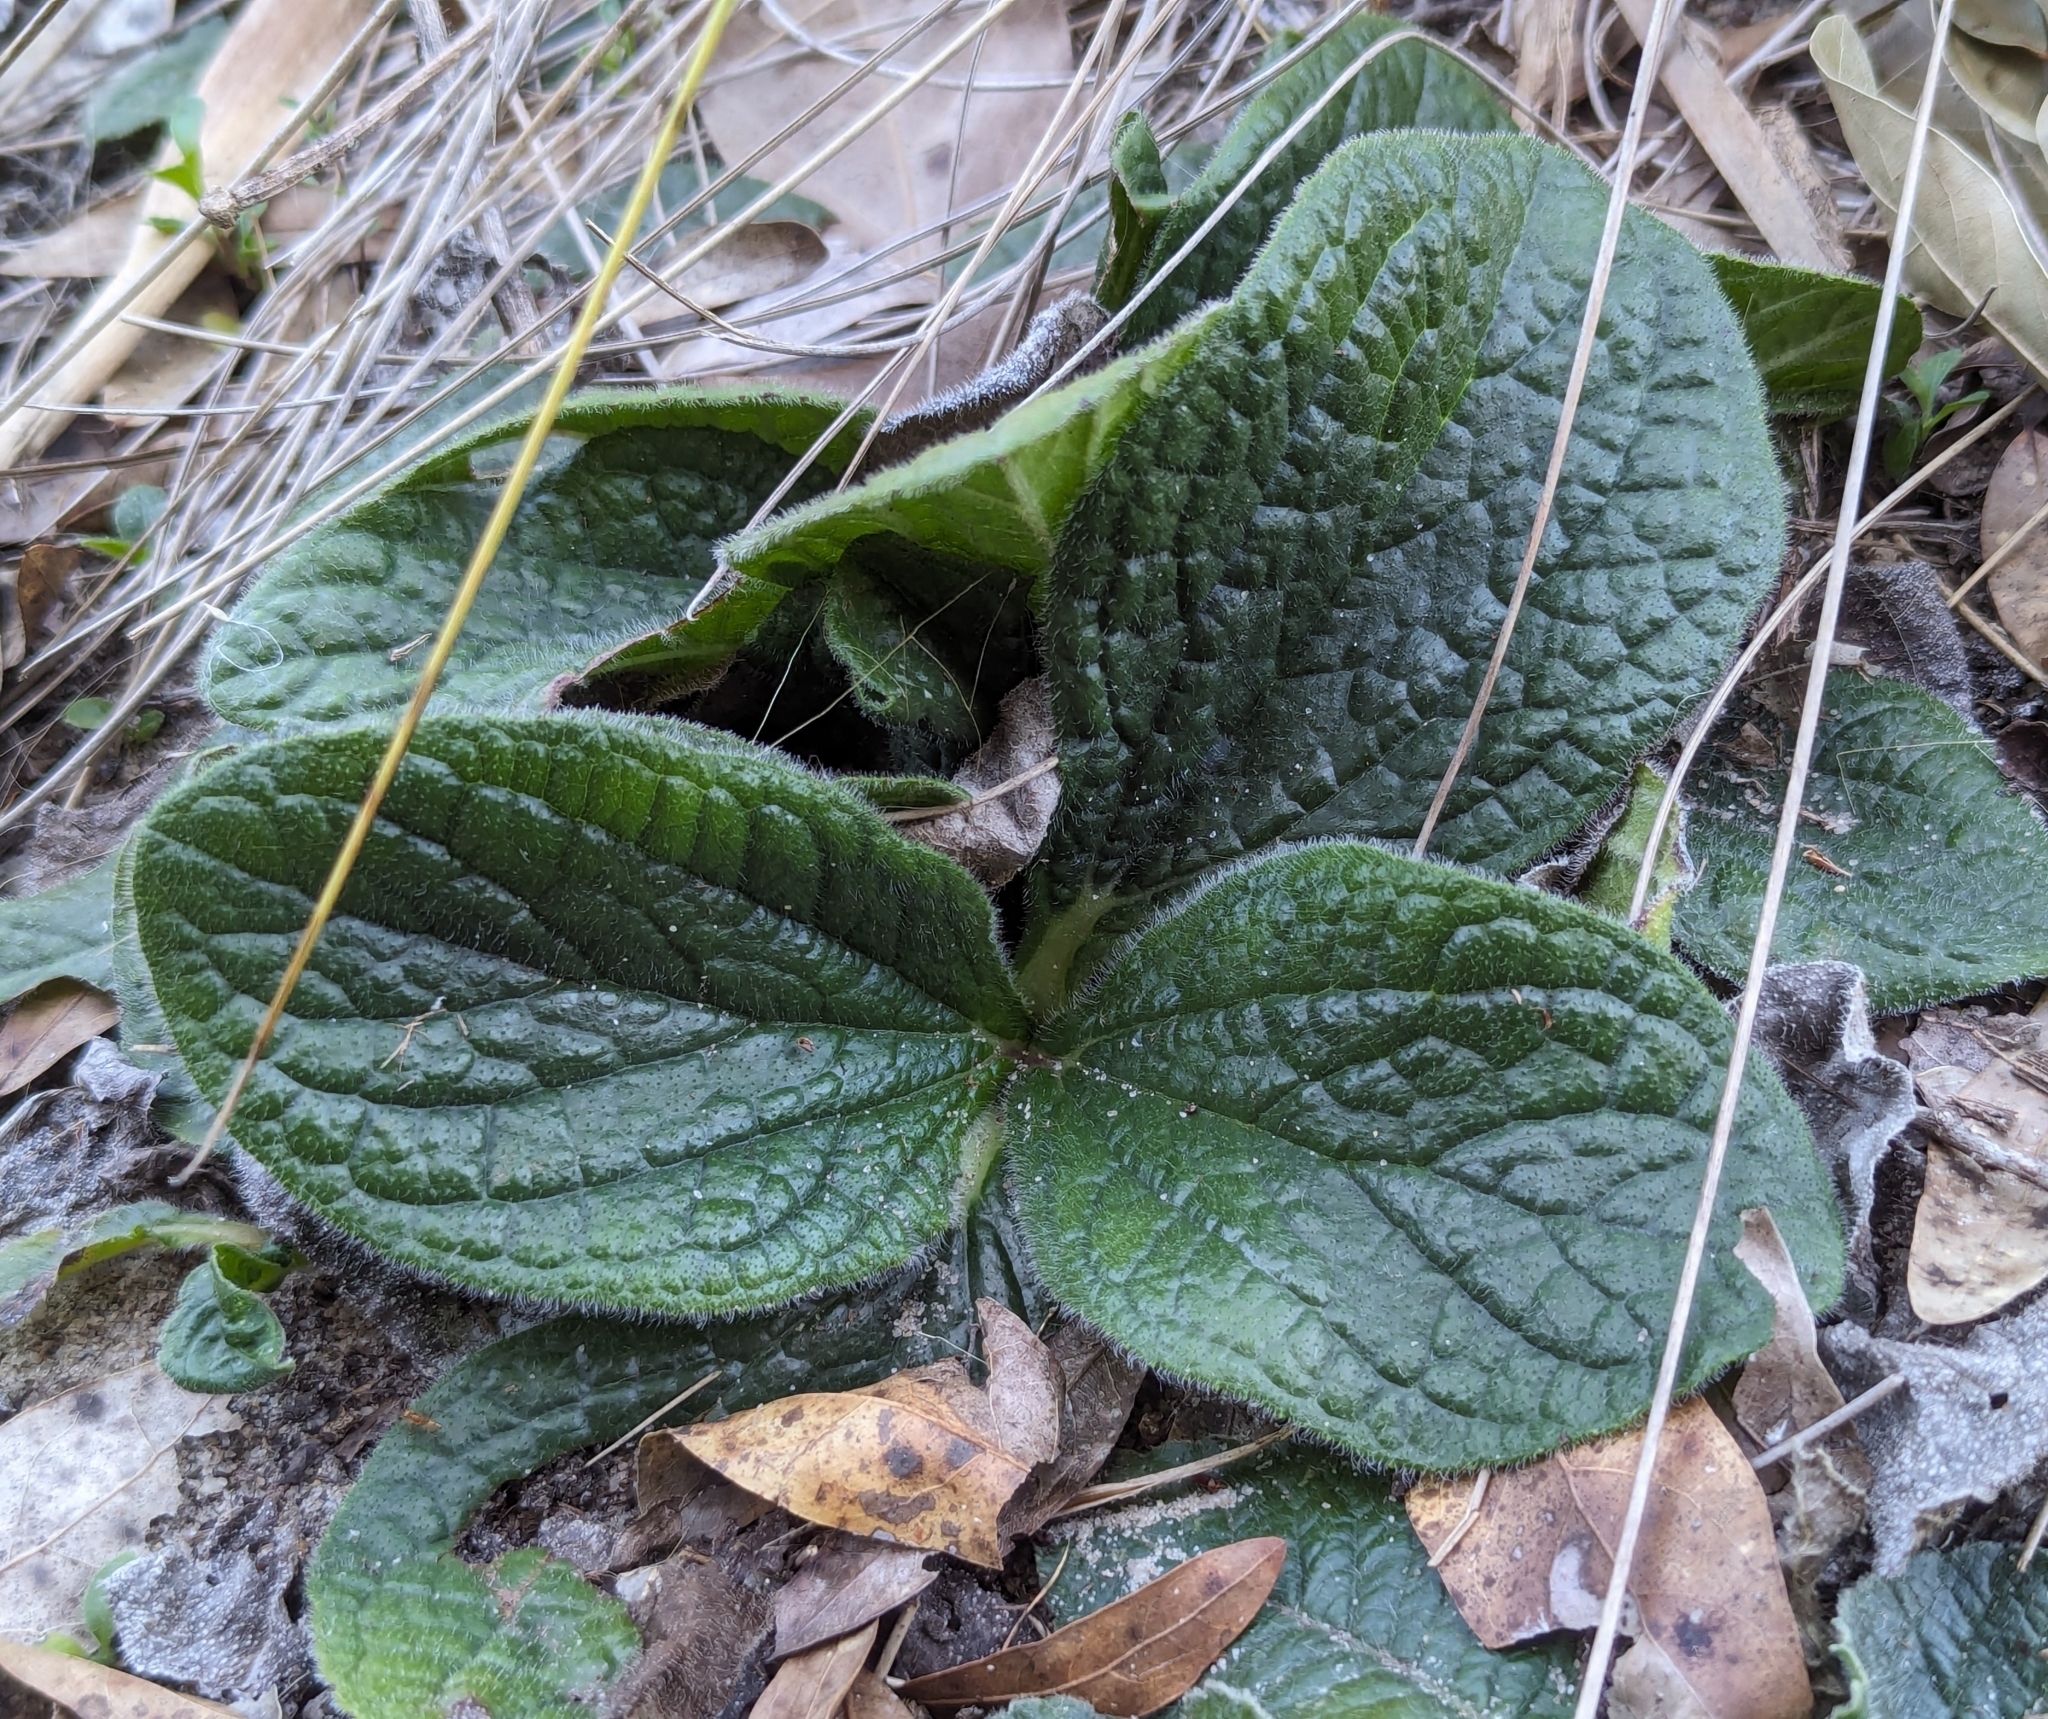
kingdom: Plantae
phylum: Tracheophyta
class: Magnoliopsida
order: Asterales
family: Asteraceae
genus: Helianthus
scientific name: Helianthus radula
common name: Pineland sunflower
